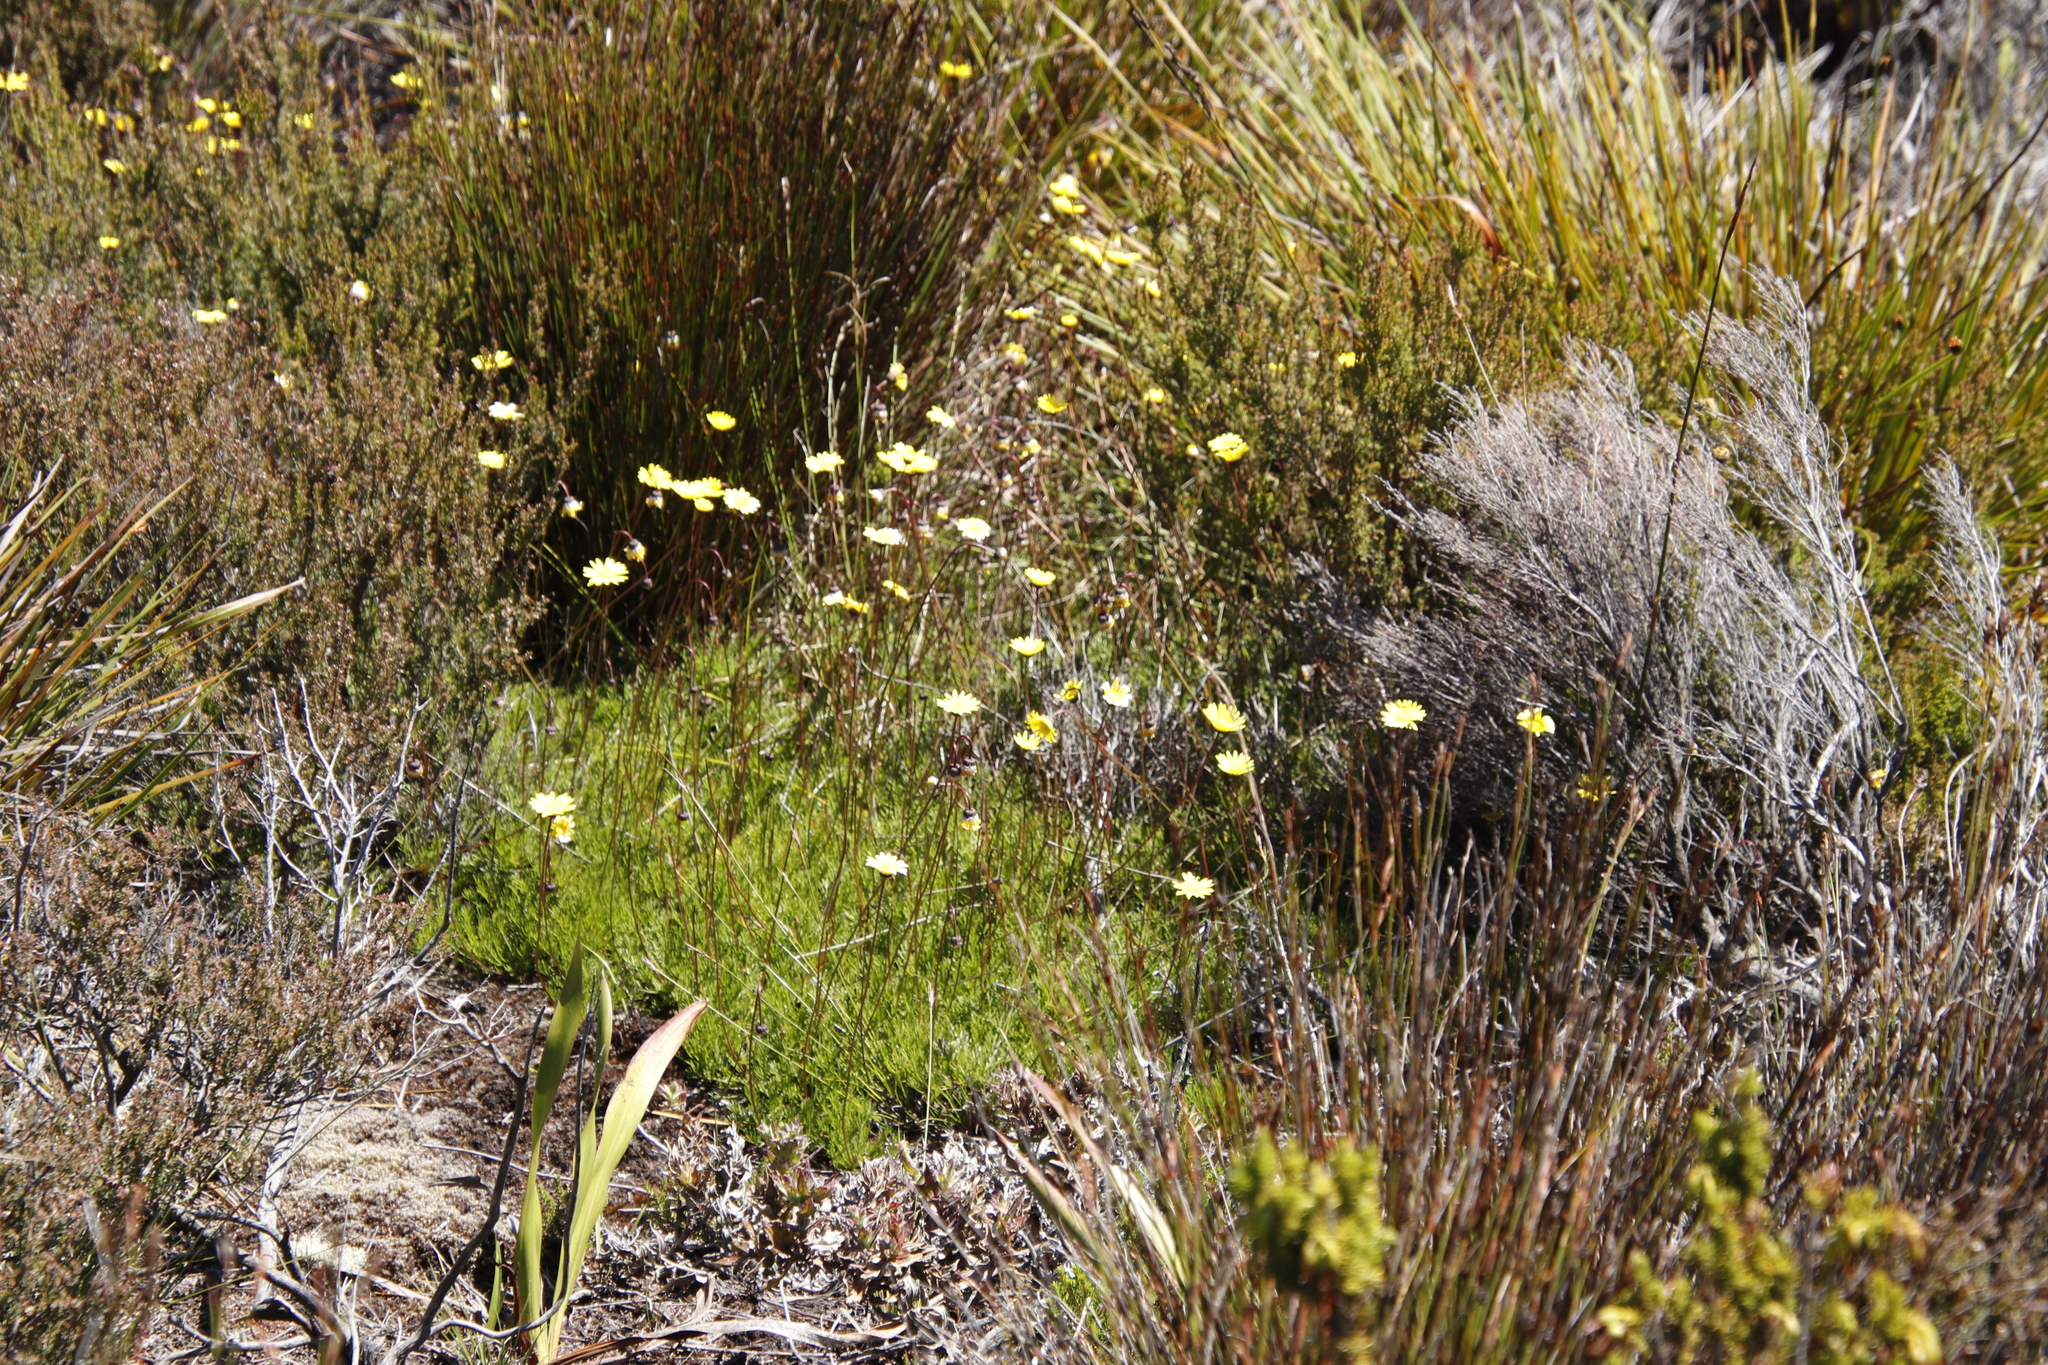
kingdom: Plantae
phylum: Tracheophyta
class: Magnoliopsida
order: Asterales
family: Asteraceae
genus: Ursinia
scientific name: Ursinia nudicaulis
